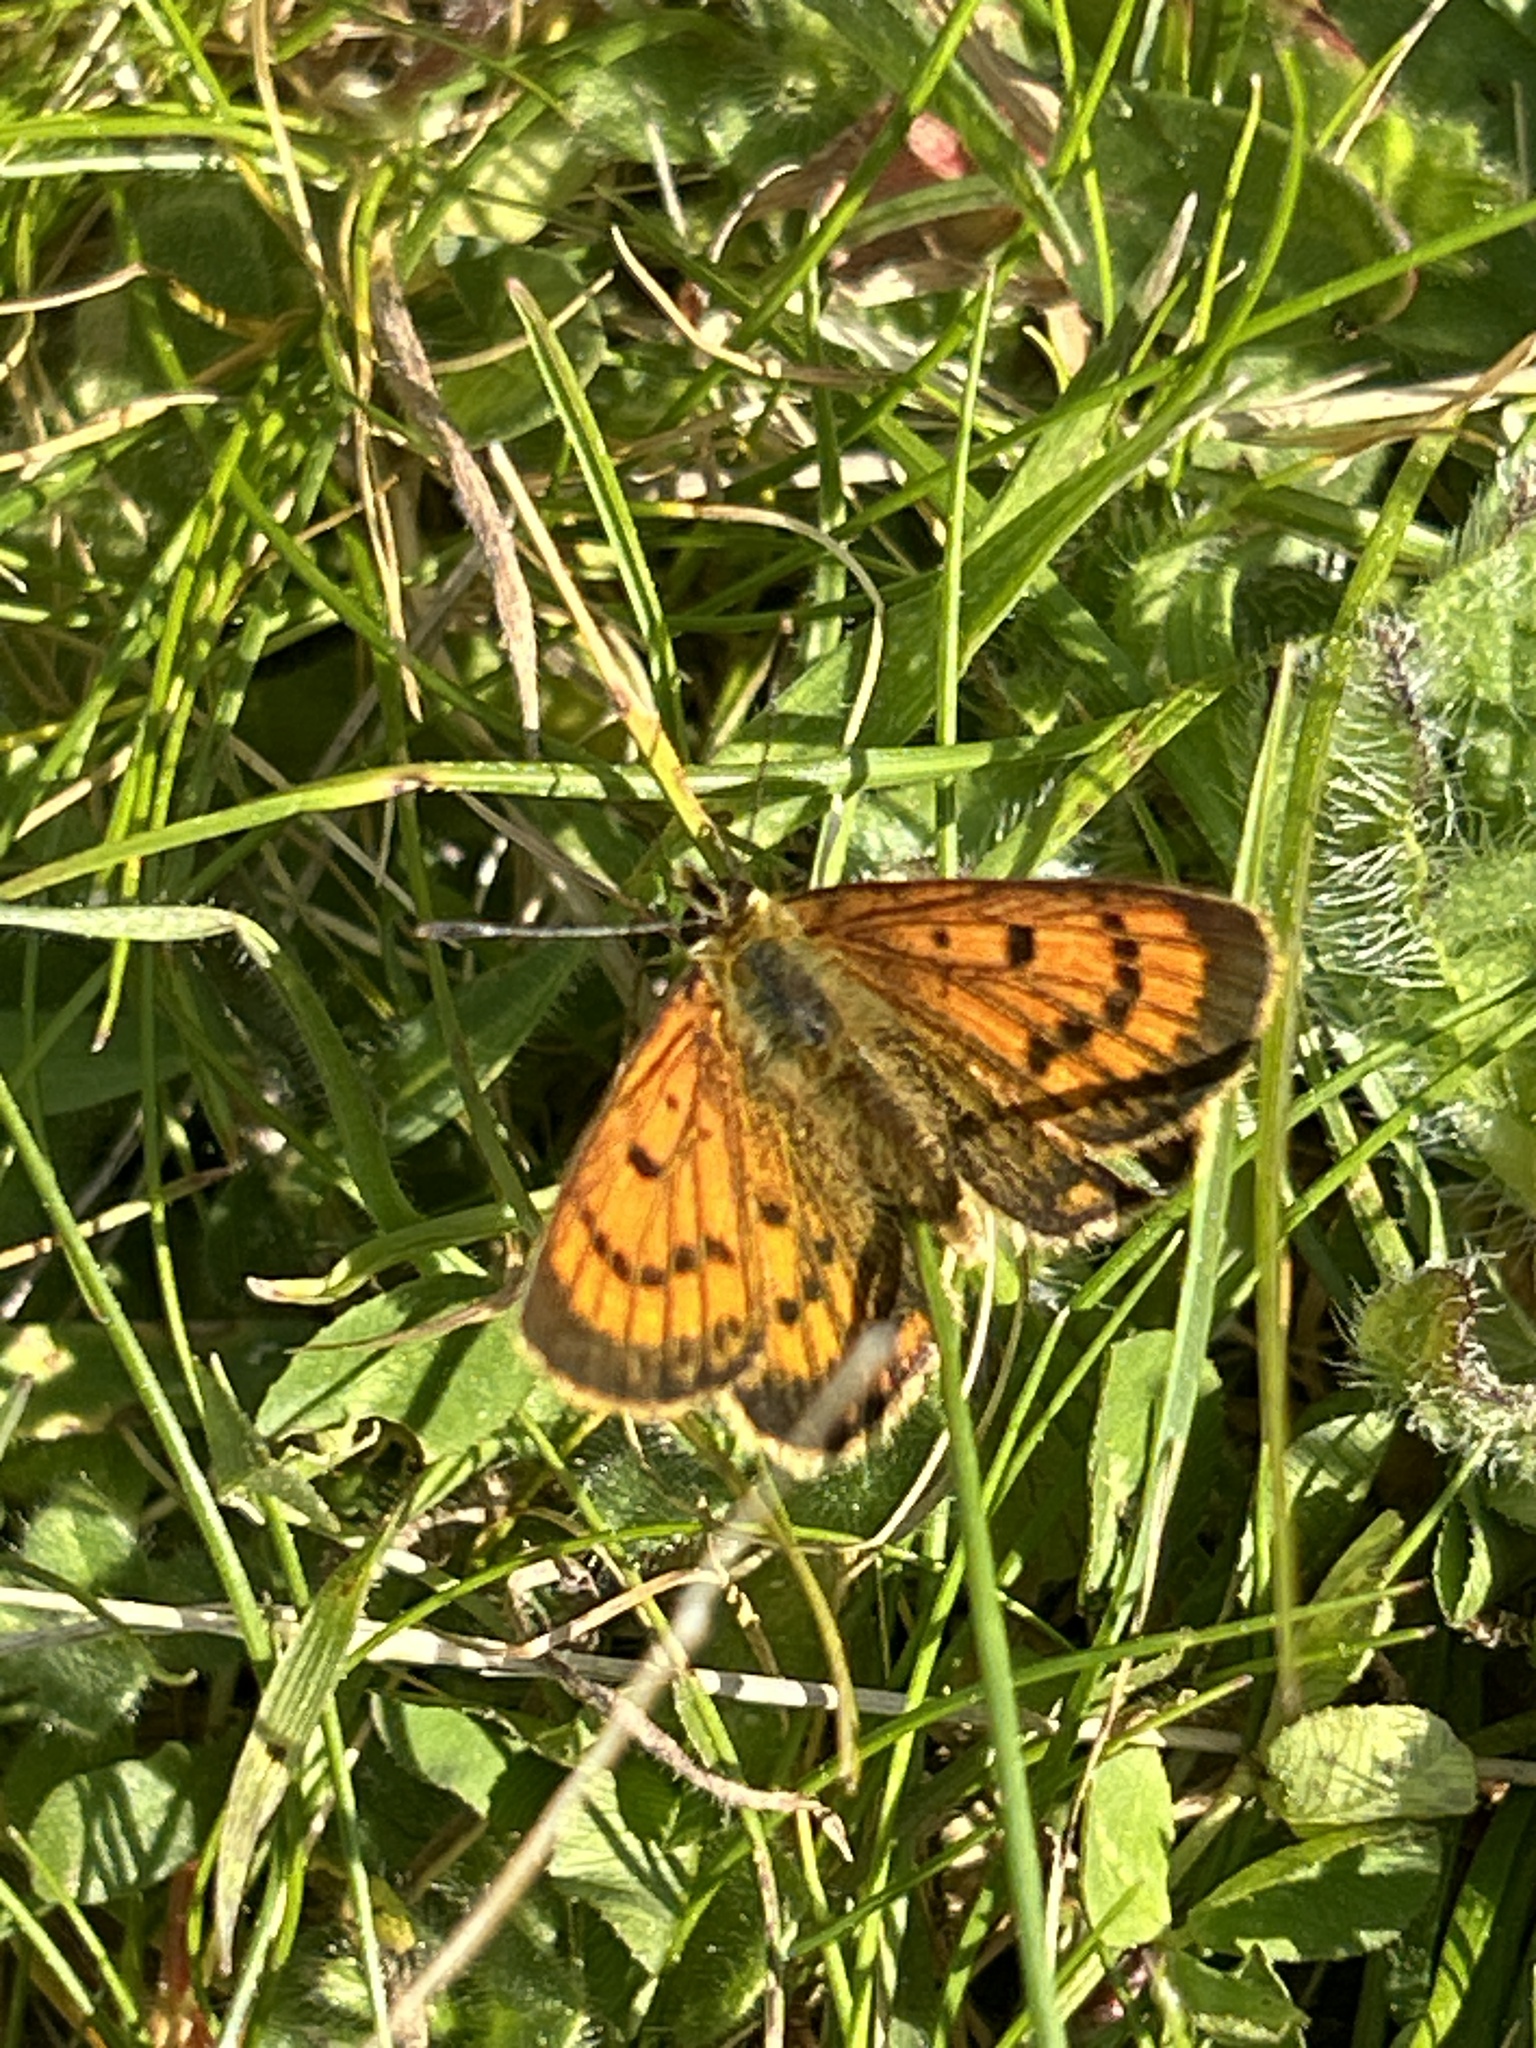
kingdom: Animalia
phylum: Arthropoda
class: Insecta
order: Lepidoptera
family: Lycaenidae
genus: Lycaena
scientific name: Lycaena
